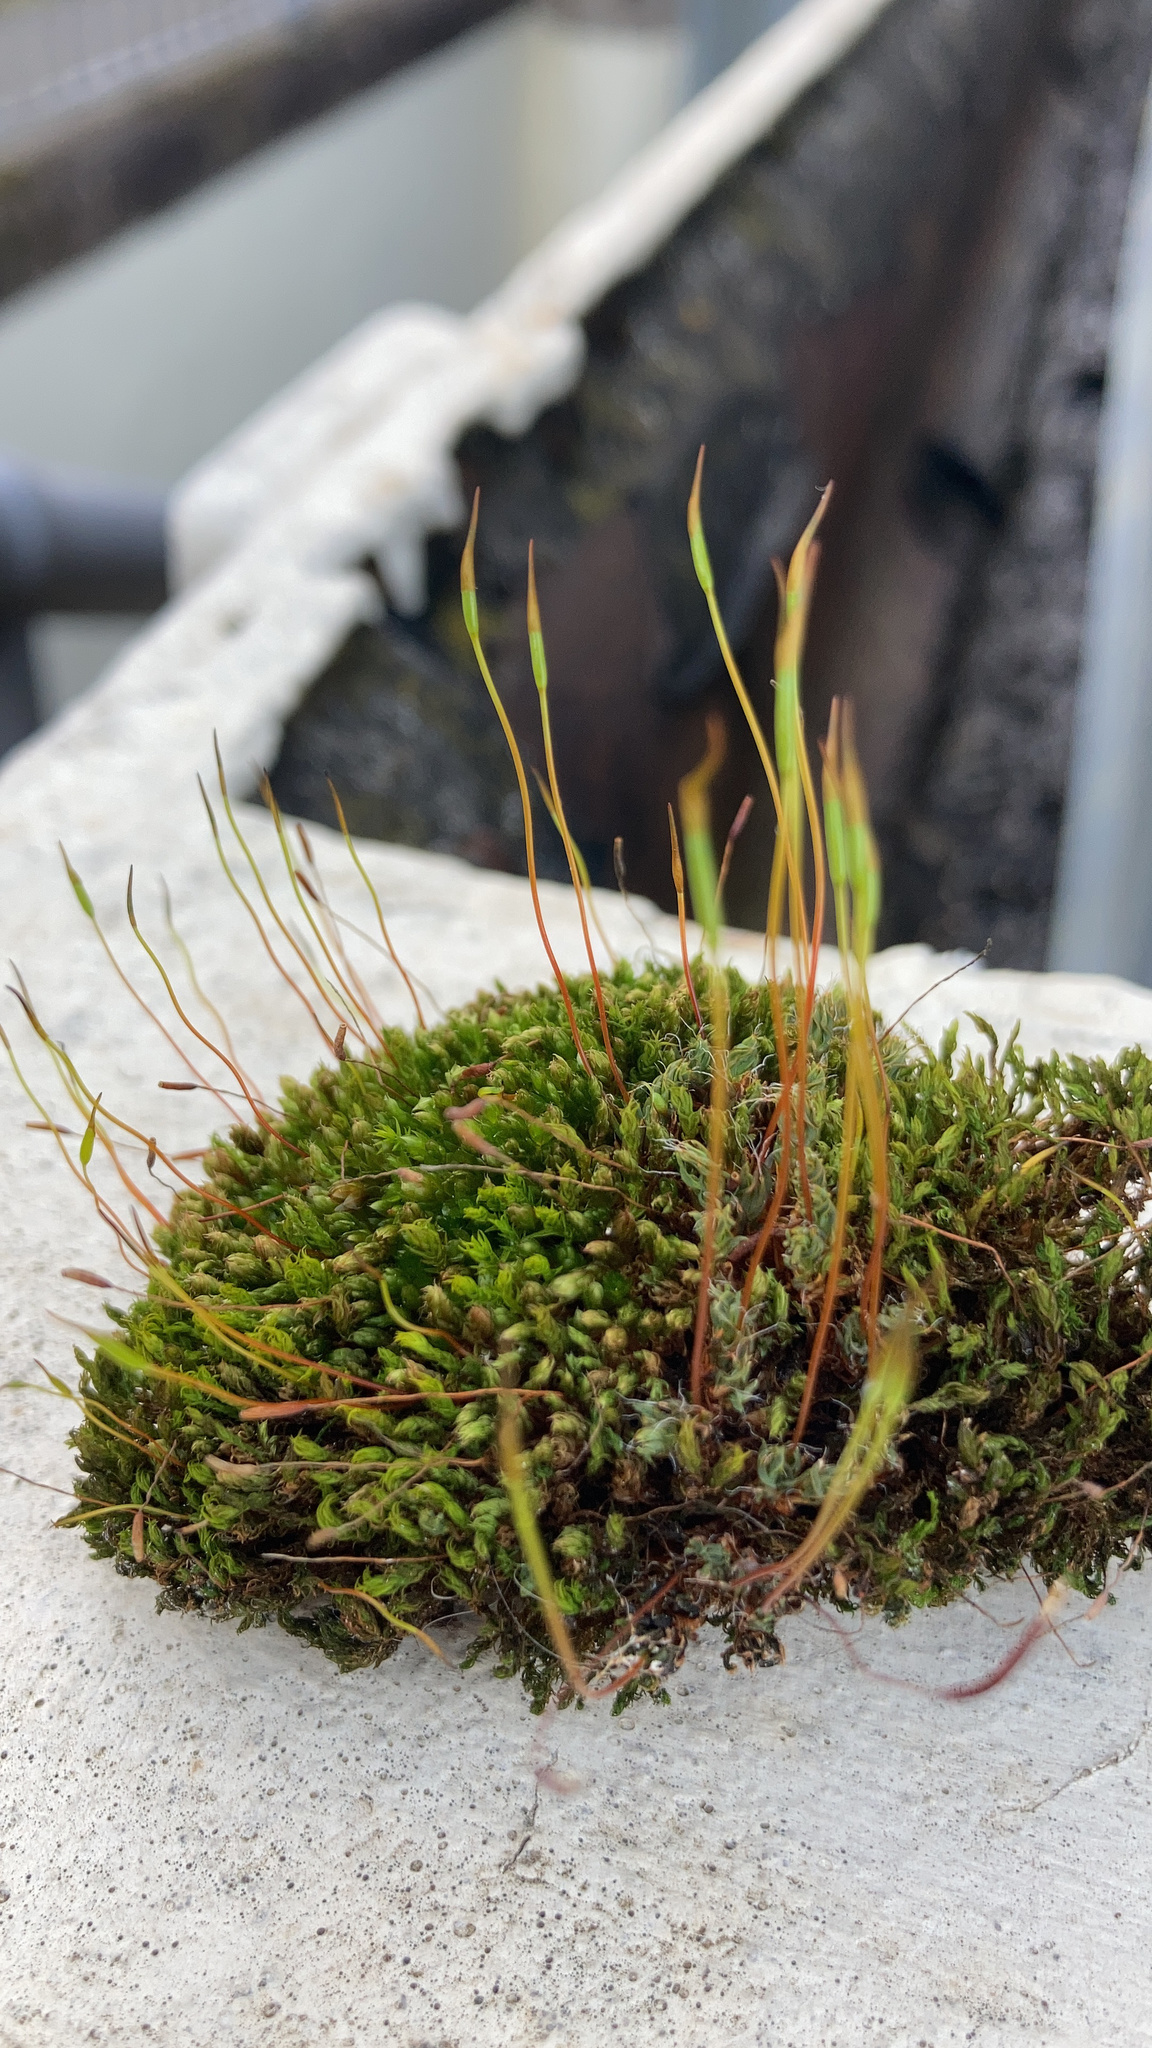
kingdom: Plantae
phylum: Bryophyta
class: Bryopsida
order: Pottiales
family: Pottiaceae
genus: Tortula
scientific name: Tortula muralis
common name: Wall screw-moss
